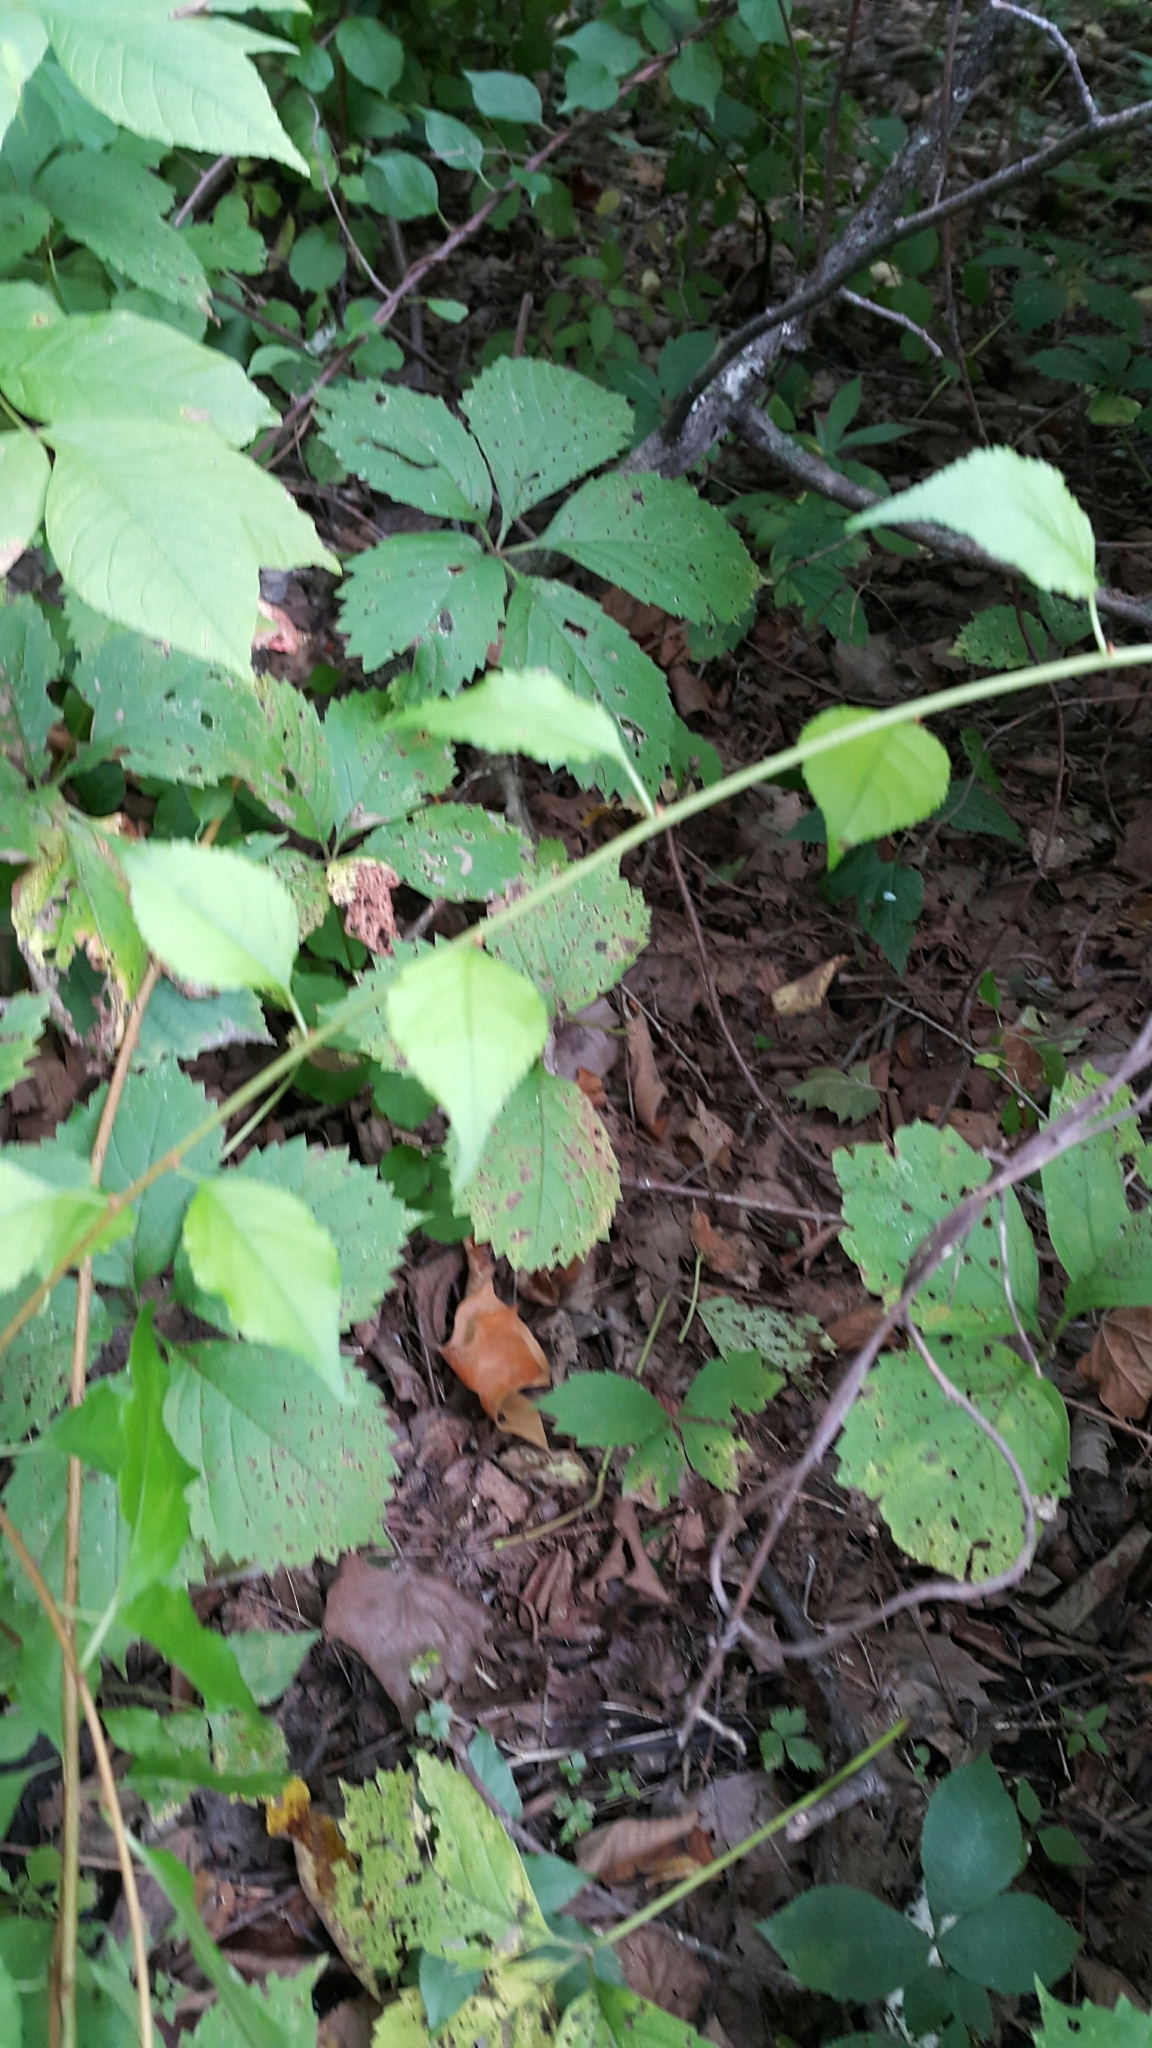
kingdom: Plantae
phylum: Tracheophyta
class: Magnoliopsida
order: Celastrales
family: Celastraceae
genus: Celastrus
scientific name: Celastrus orbiculatus
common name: Oriental bittersweet
